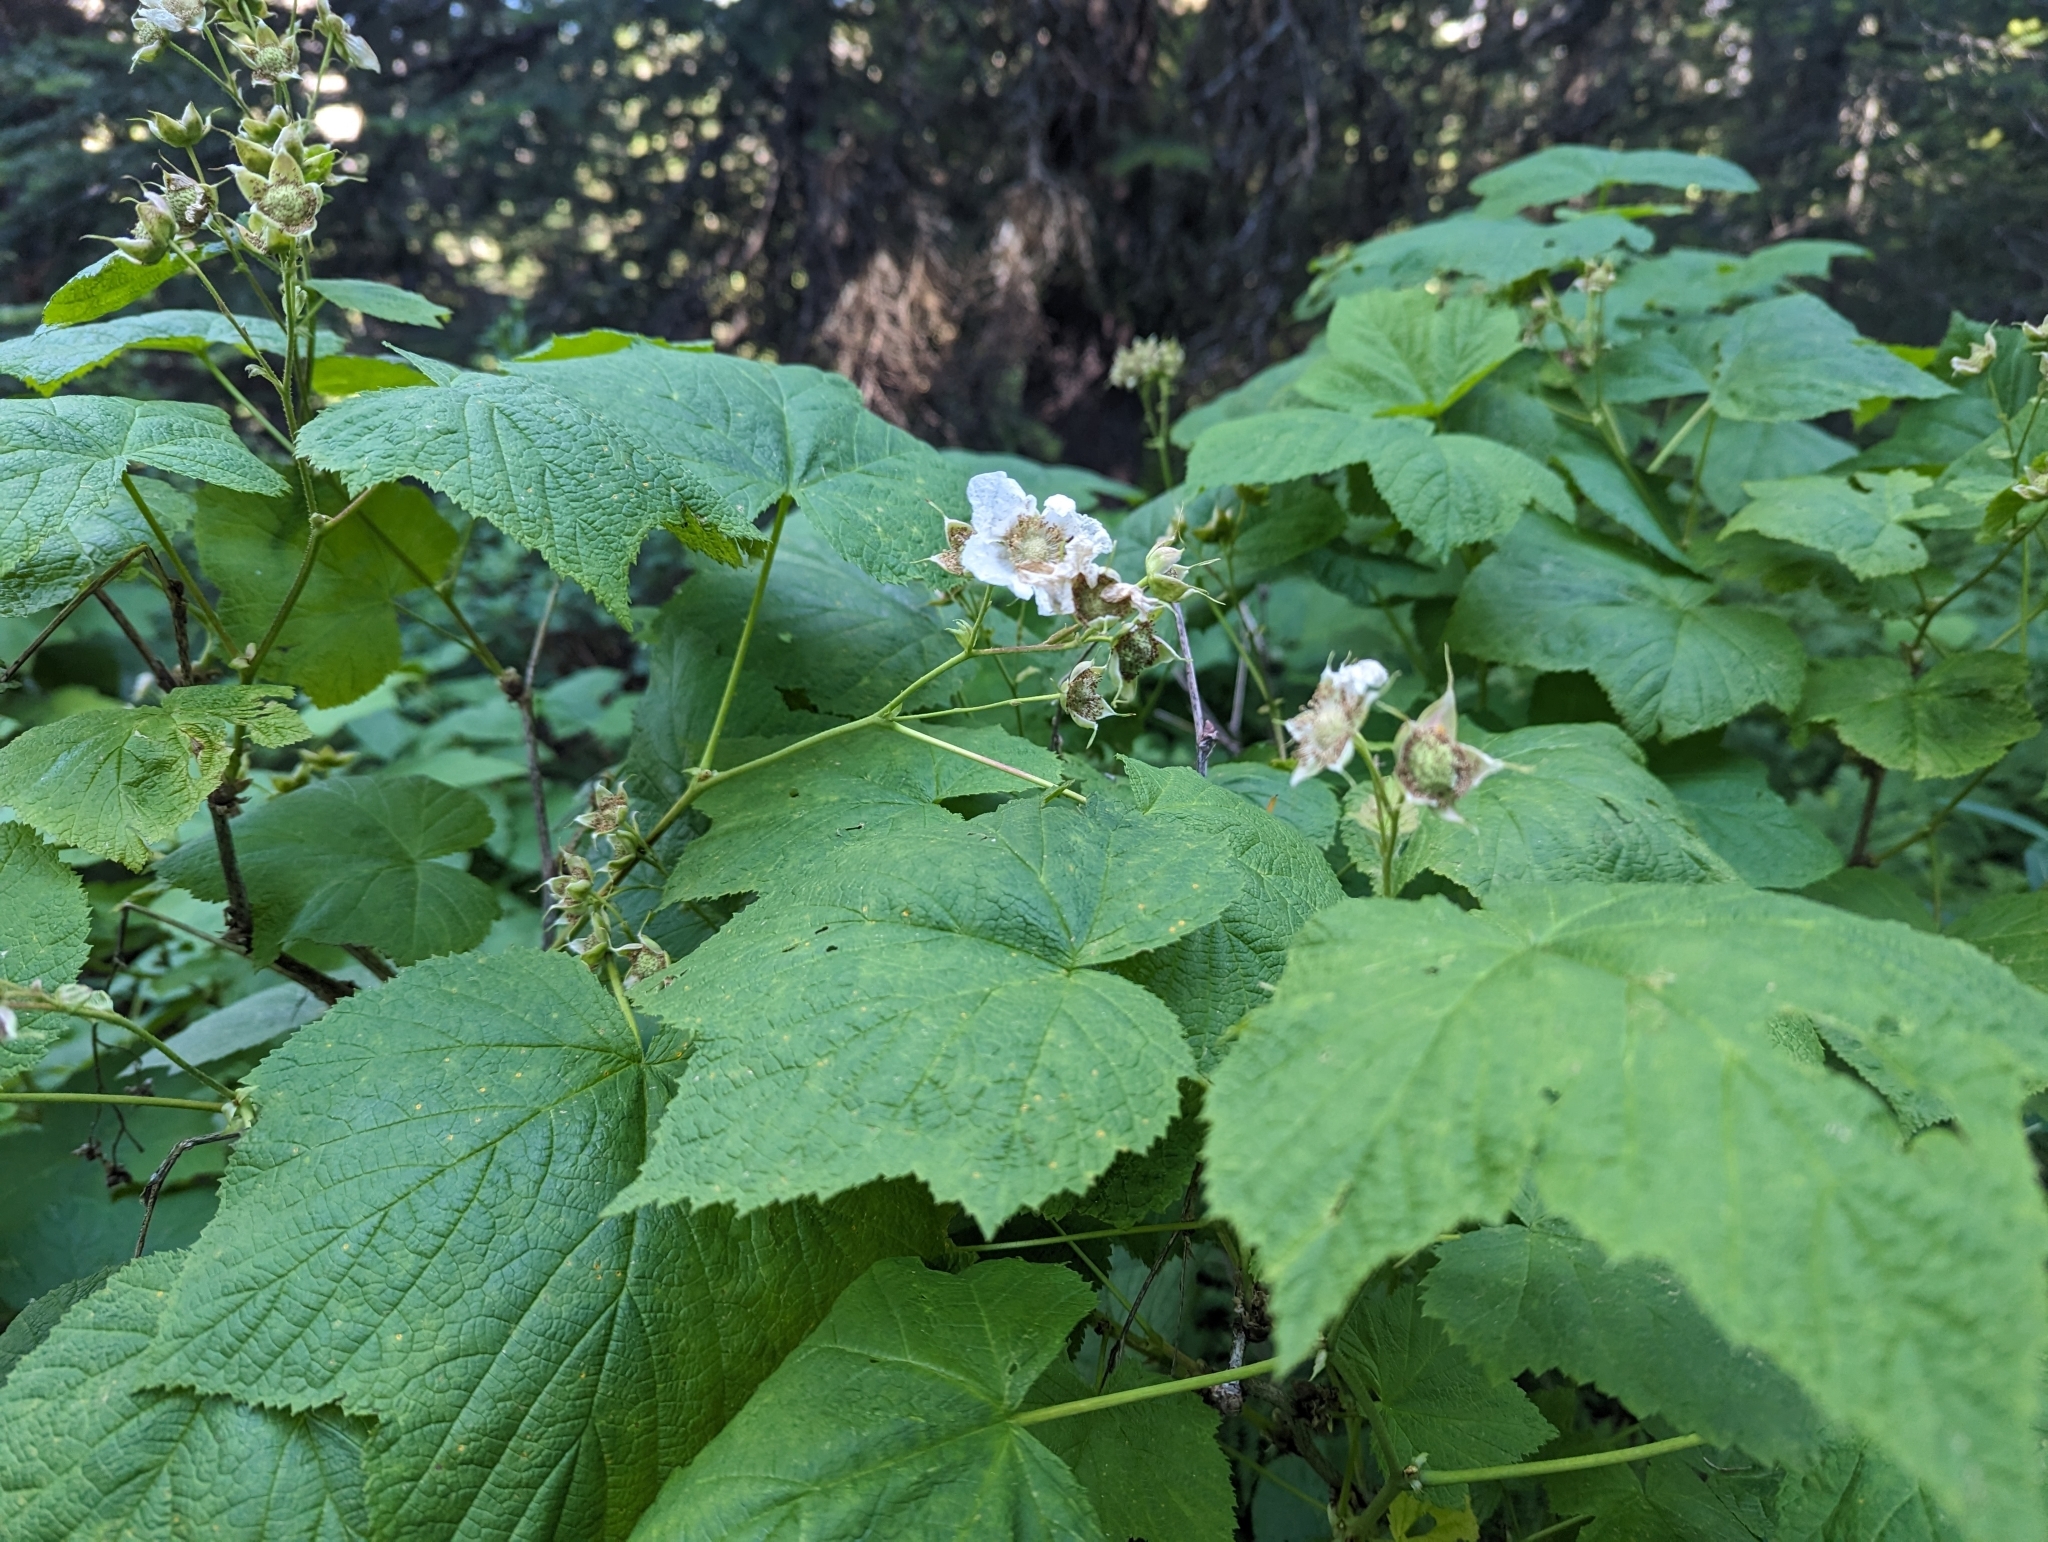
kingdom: Plantae
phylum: Tracheophyta
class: Magnoliopsida
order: Rosales
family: Rosaceae
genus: Rubus
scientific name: Rubus parviflorus
